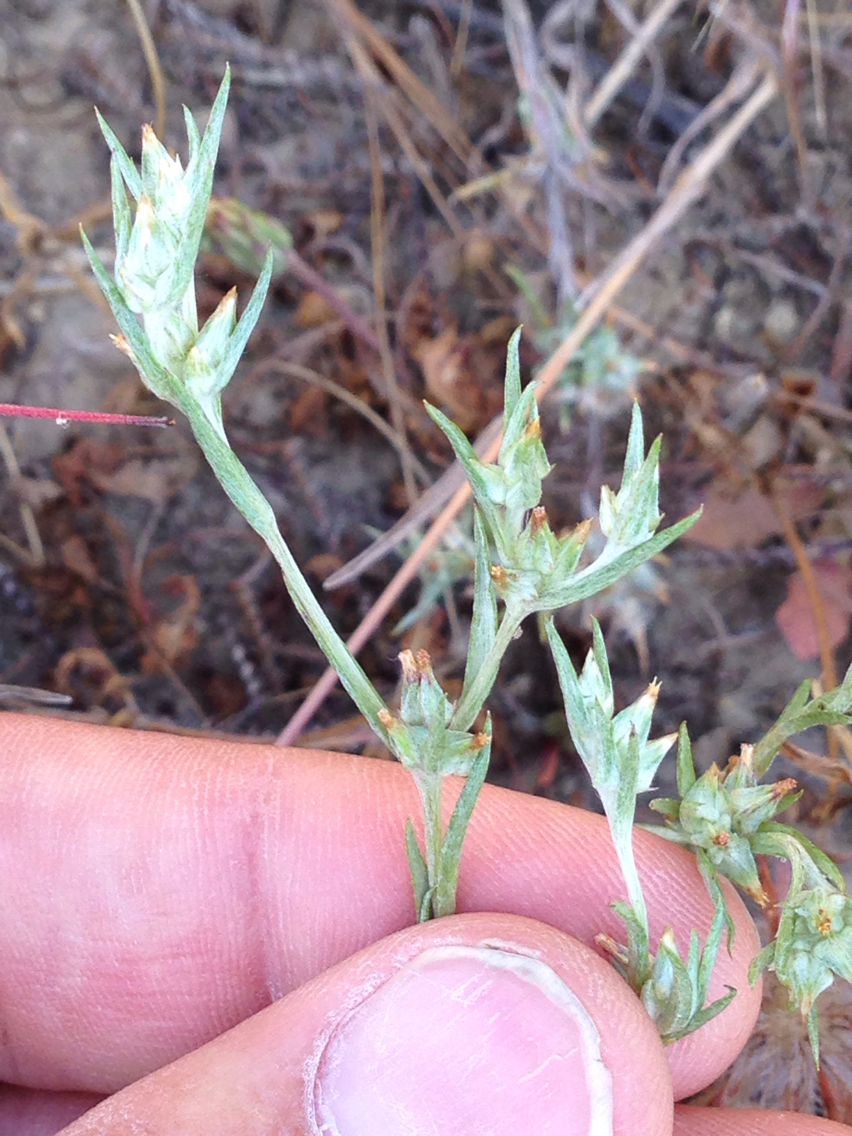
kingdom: Plantae
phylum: Tracheophyta
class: Magnoliopsida
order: Asterales
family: Asteraceae
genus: Logfia
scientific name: Logfia gallica
